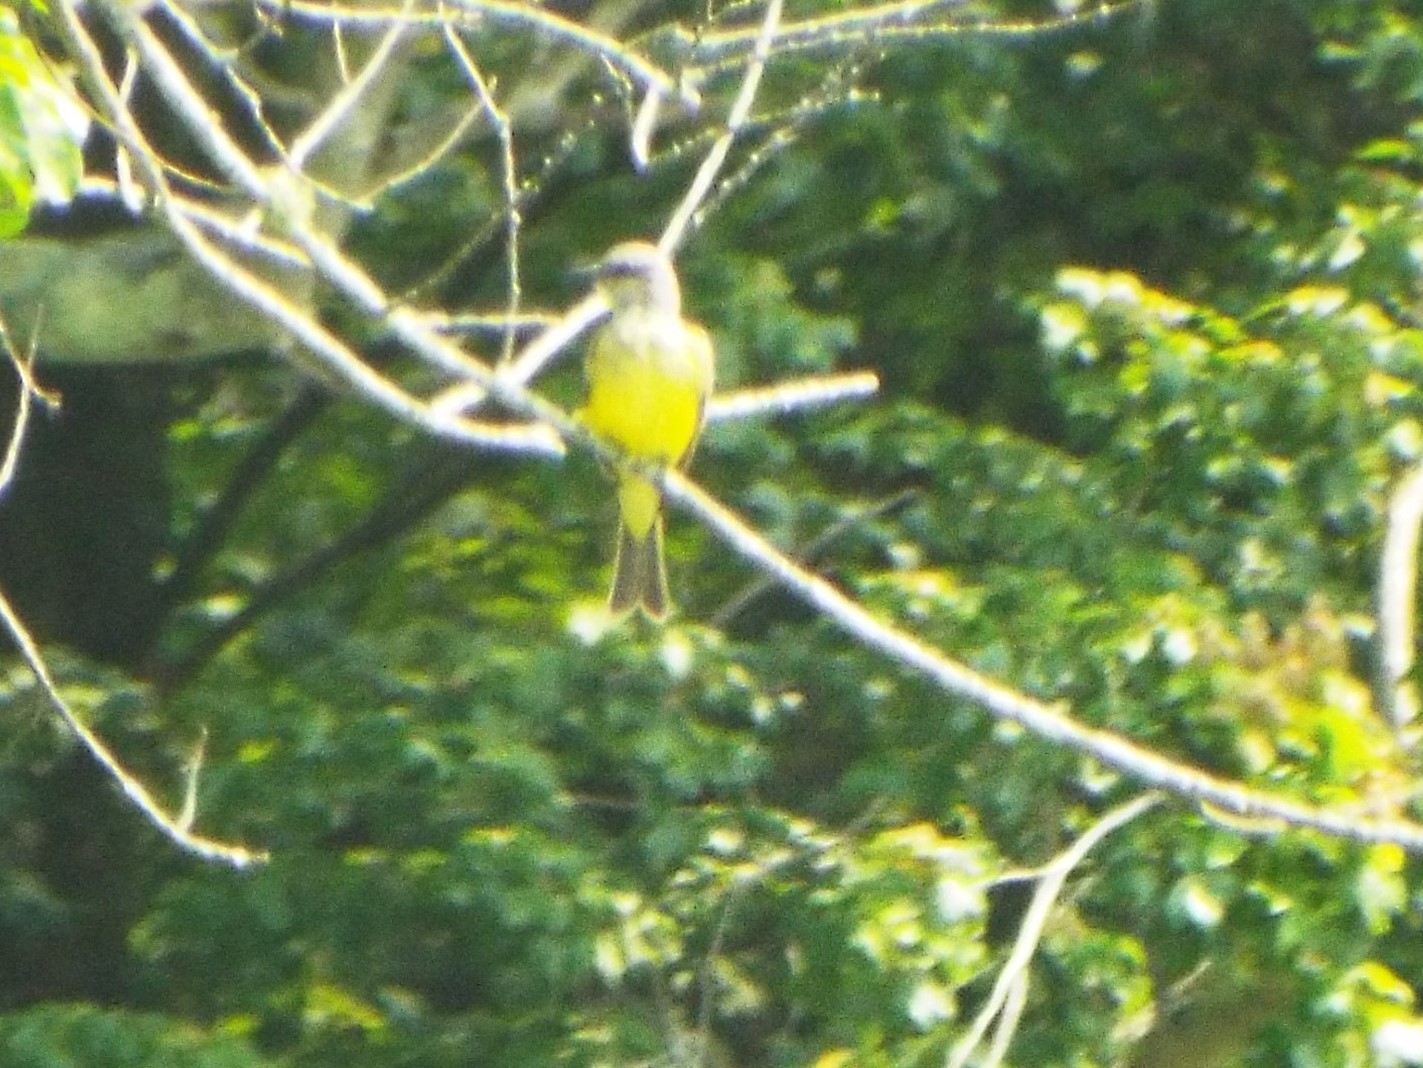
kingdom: Animalia
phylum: Chordata
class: Aves
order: Passeriformes
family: Tyrannidae
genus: Tyrannus
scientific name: Tyrannus melancholicus
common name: Tropical kingbird
